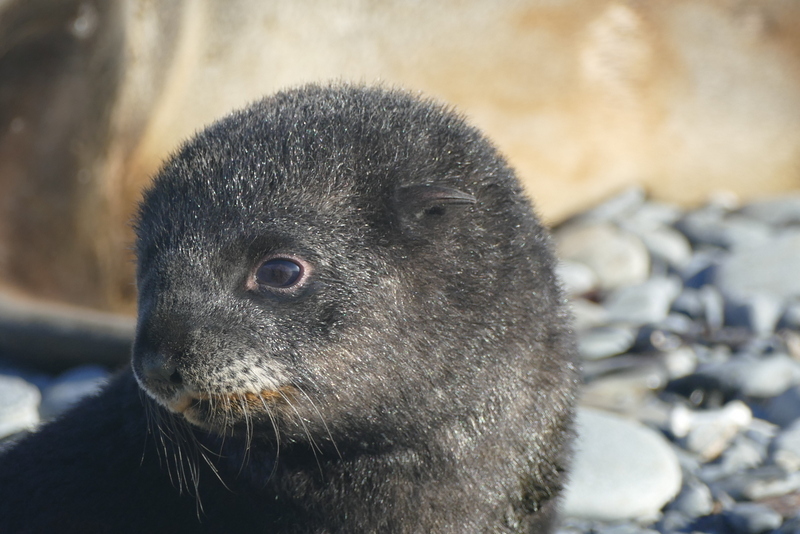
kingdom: Animalia
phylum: Chordata
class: Mammalia
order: Carnivora
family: Otariidae
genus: Arctocephalus
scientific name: Arctocephalus gazella
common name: Antarctic fur seal
